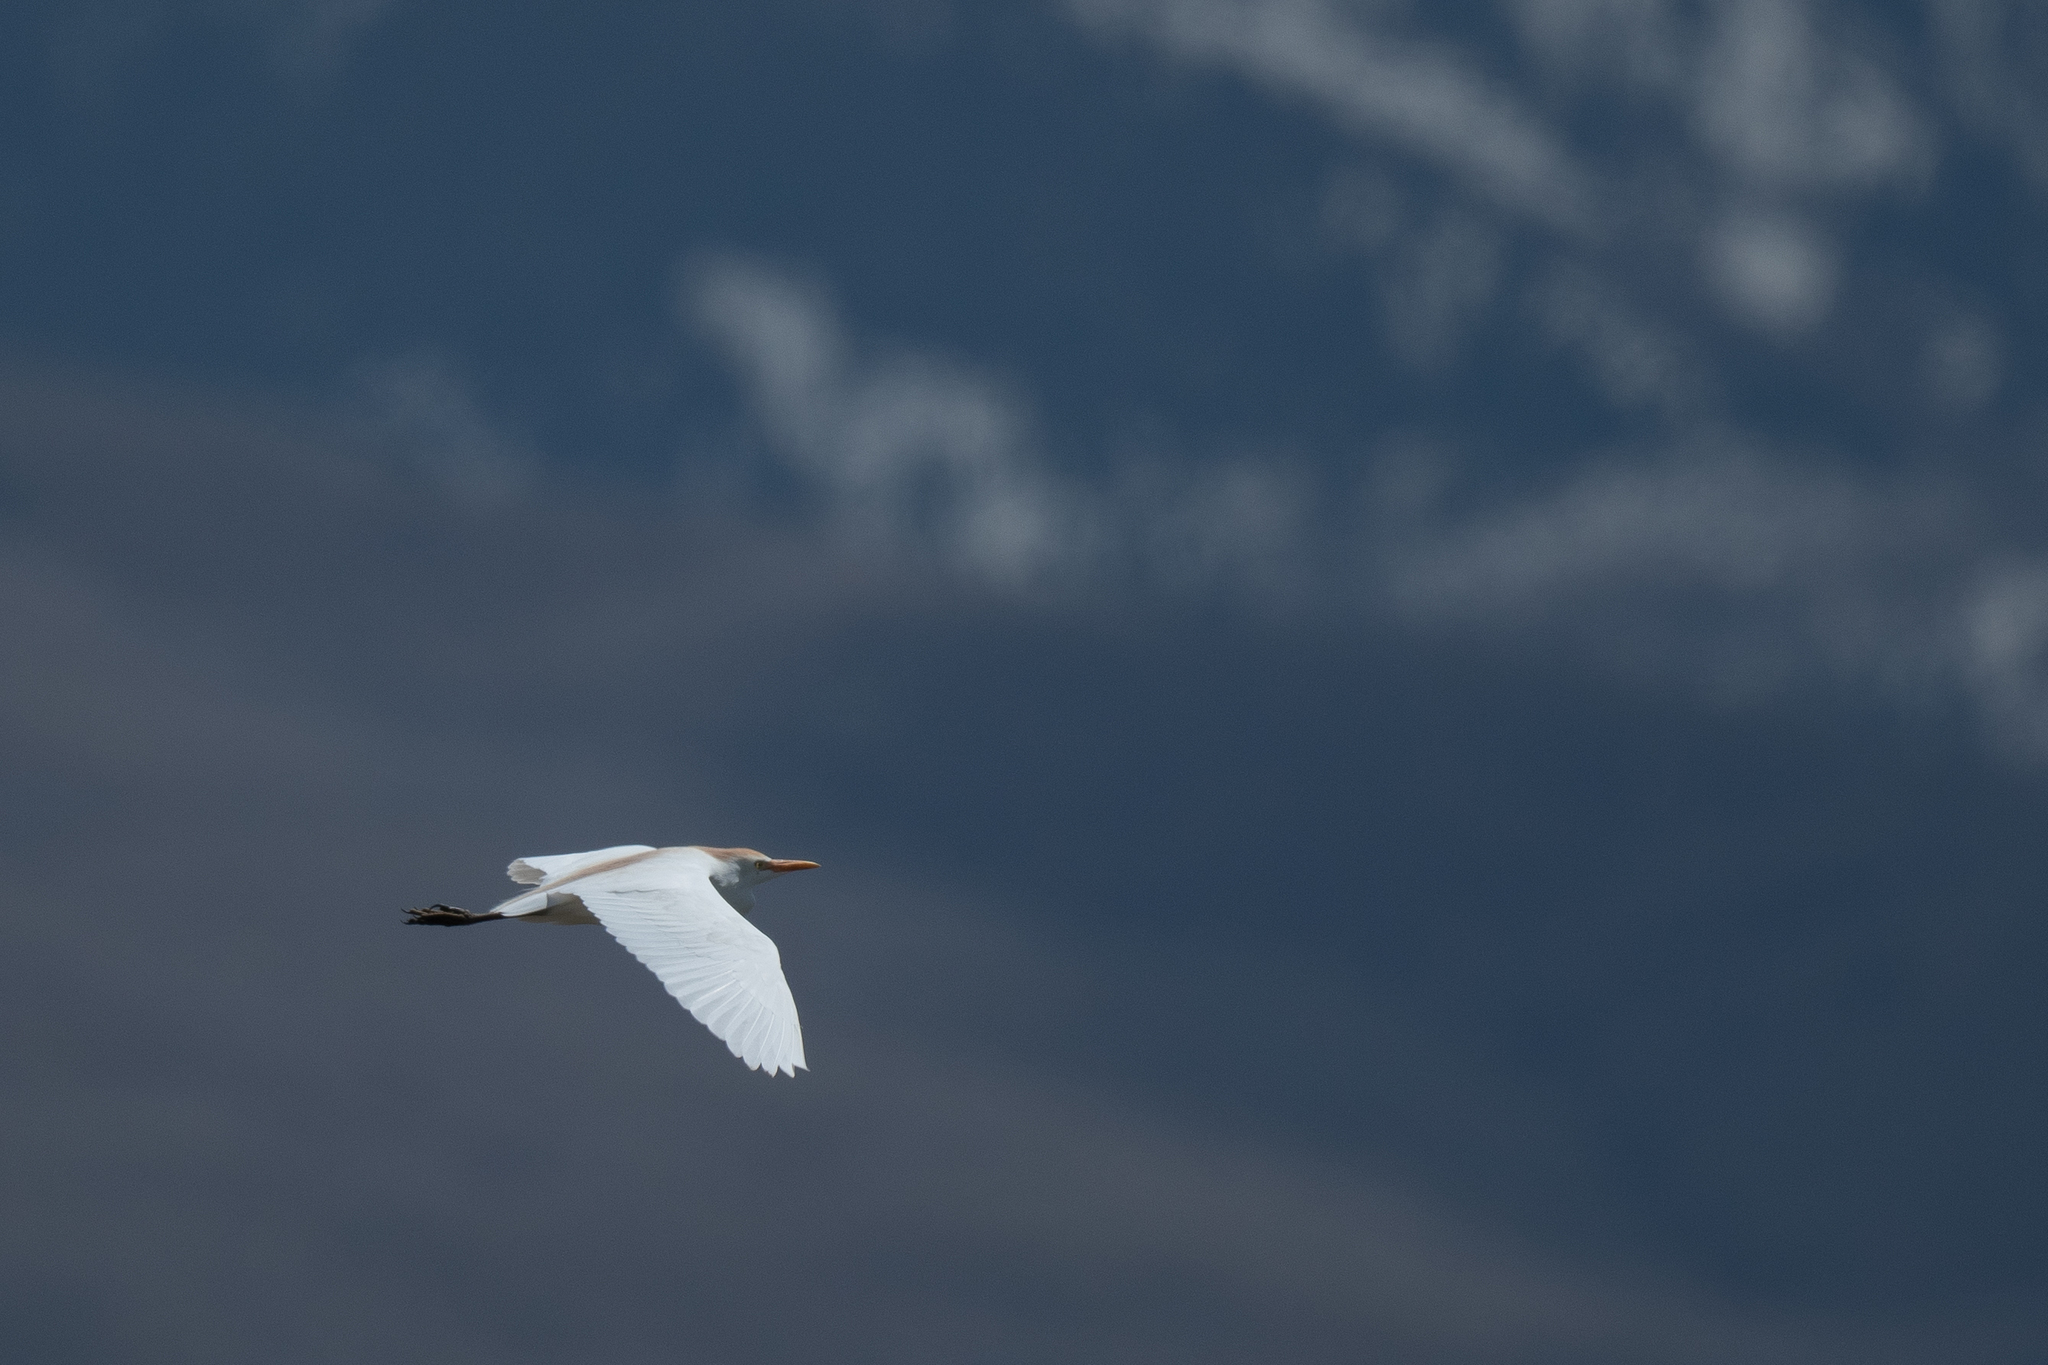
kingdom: Animalia
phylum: Chordata
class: Aves
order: Pelecaniformes
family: Ardeidae
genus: Bubulcus
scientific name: Bubulcus ibis
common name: Cattle egret
